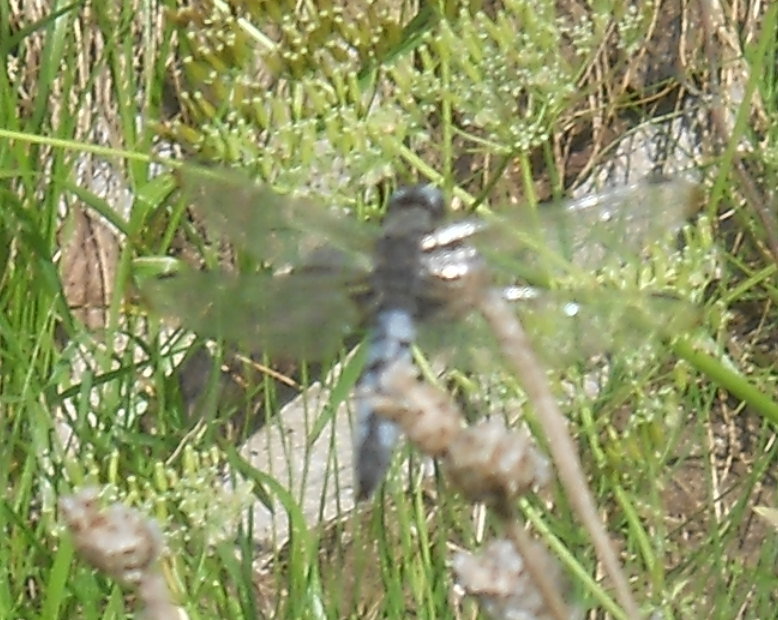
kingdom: Animalia
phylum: Arthropoda
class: Insecta
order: Odonata
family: Libellulidae
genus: Libellula
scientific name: Libellula fulva
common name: Blue chaser
